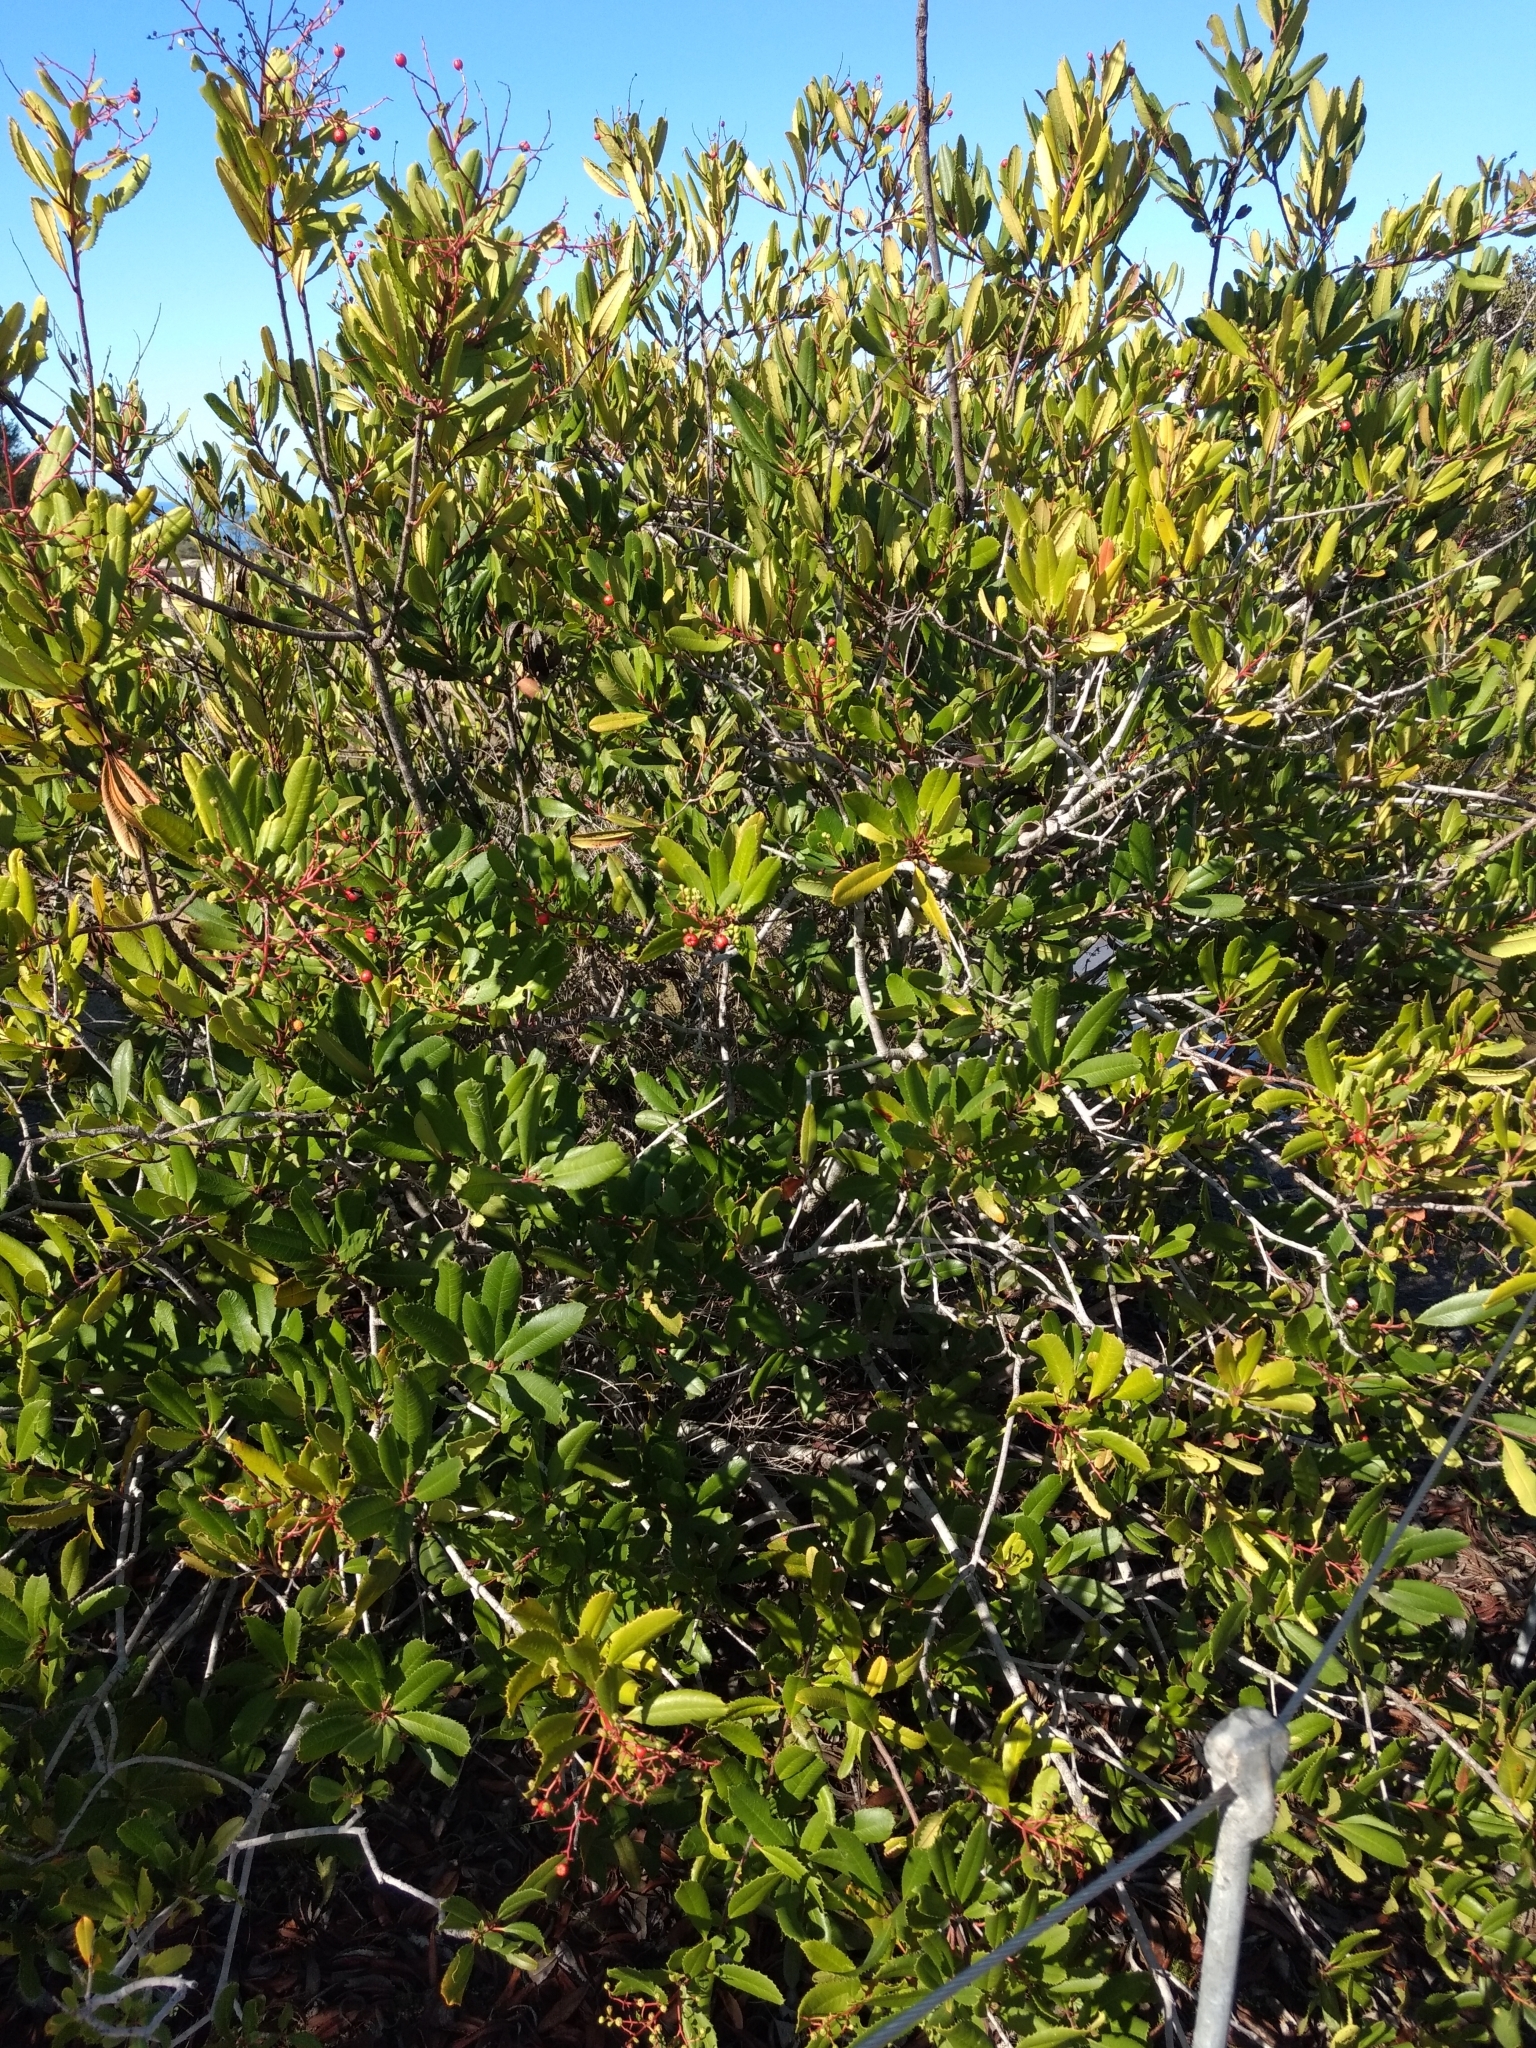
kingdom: Plantae
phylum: Tracheophyta
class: Magnoliopsida
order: Rosales
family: Rosaceae
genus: Heteromeles
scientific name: Heteromeles arbutifolia
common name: California-holly
